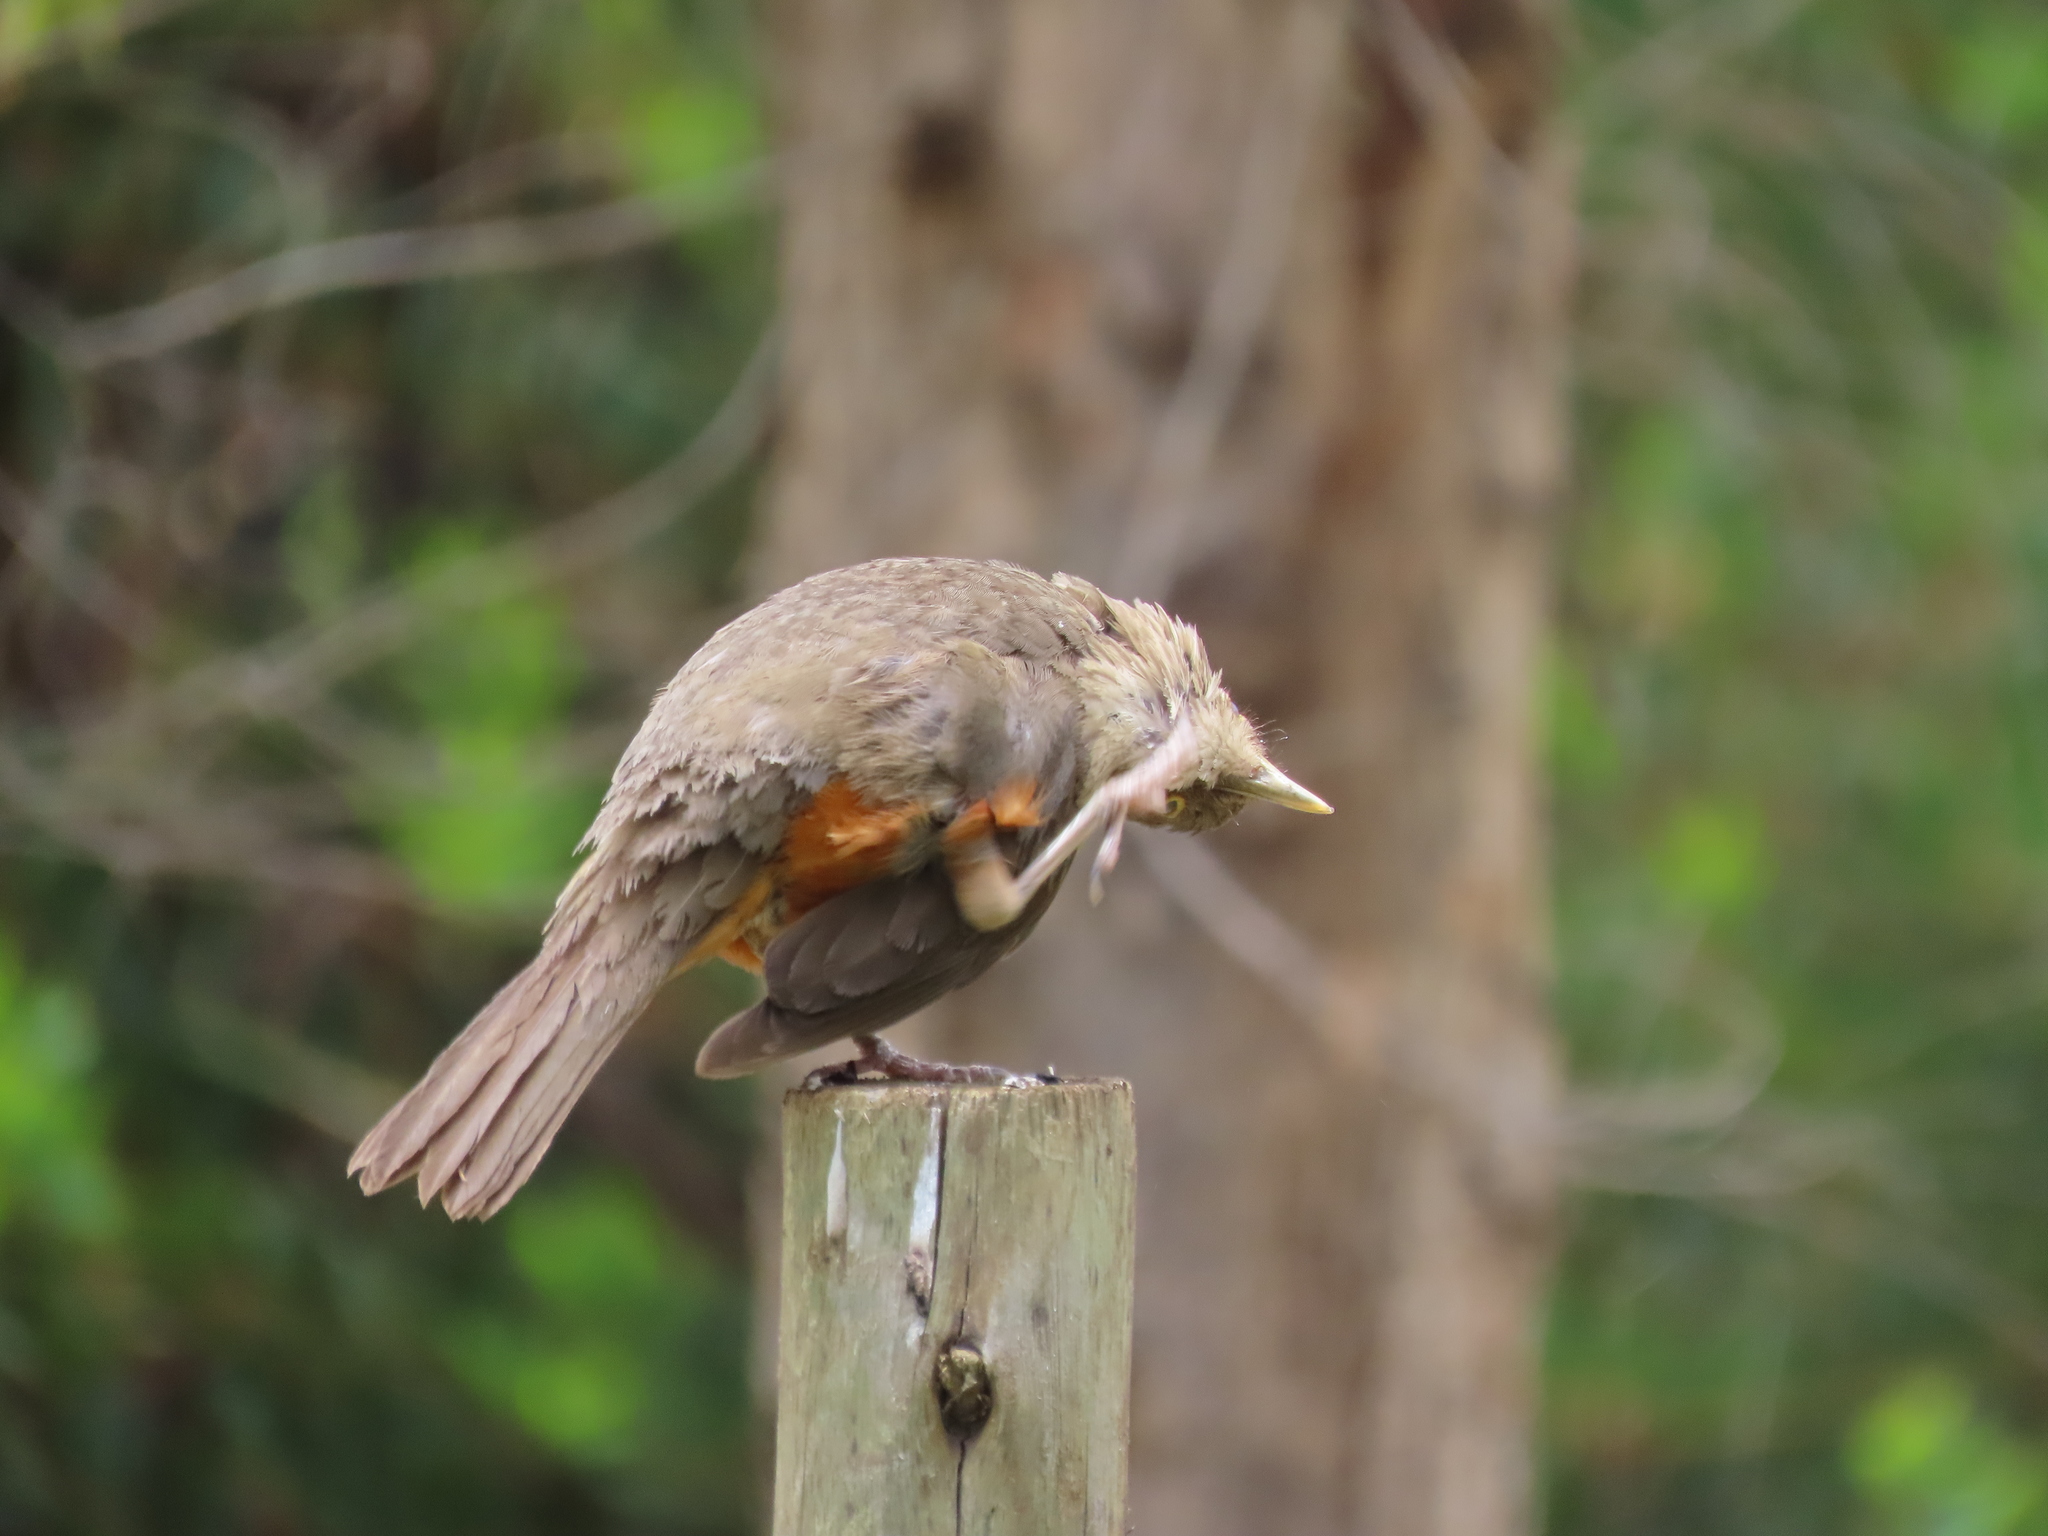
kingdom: Animalia
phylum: Chordata
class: Aves
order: Passeriformes
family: Turdidae
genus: Turdus
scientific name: Turdus rufiventris
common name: Rufous-bellied thrush
